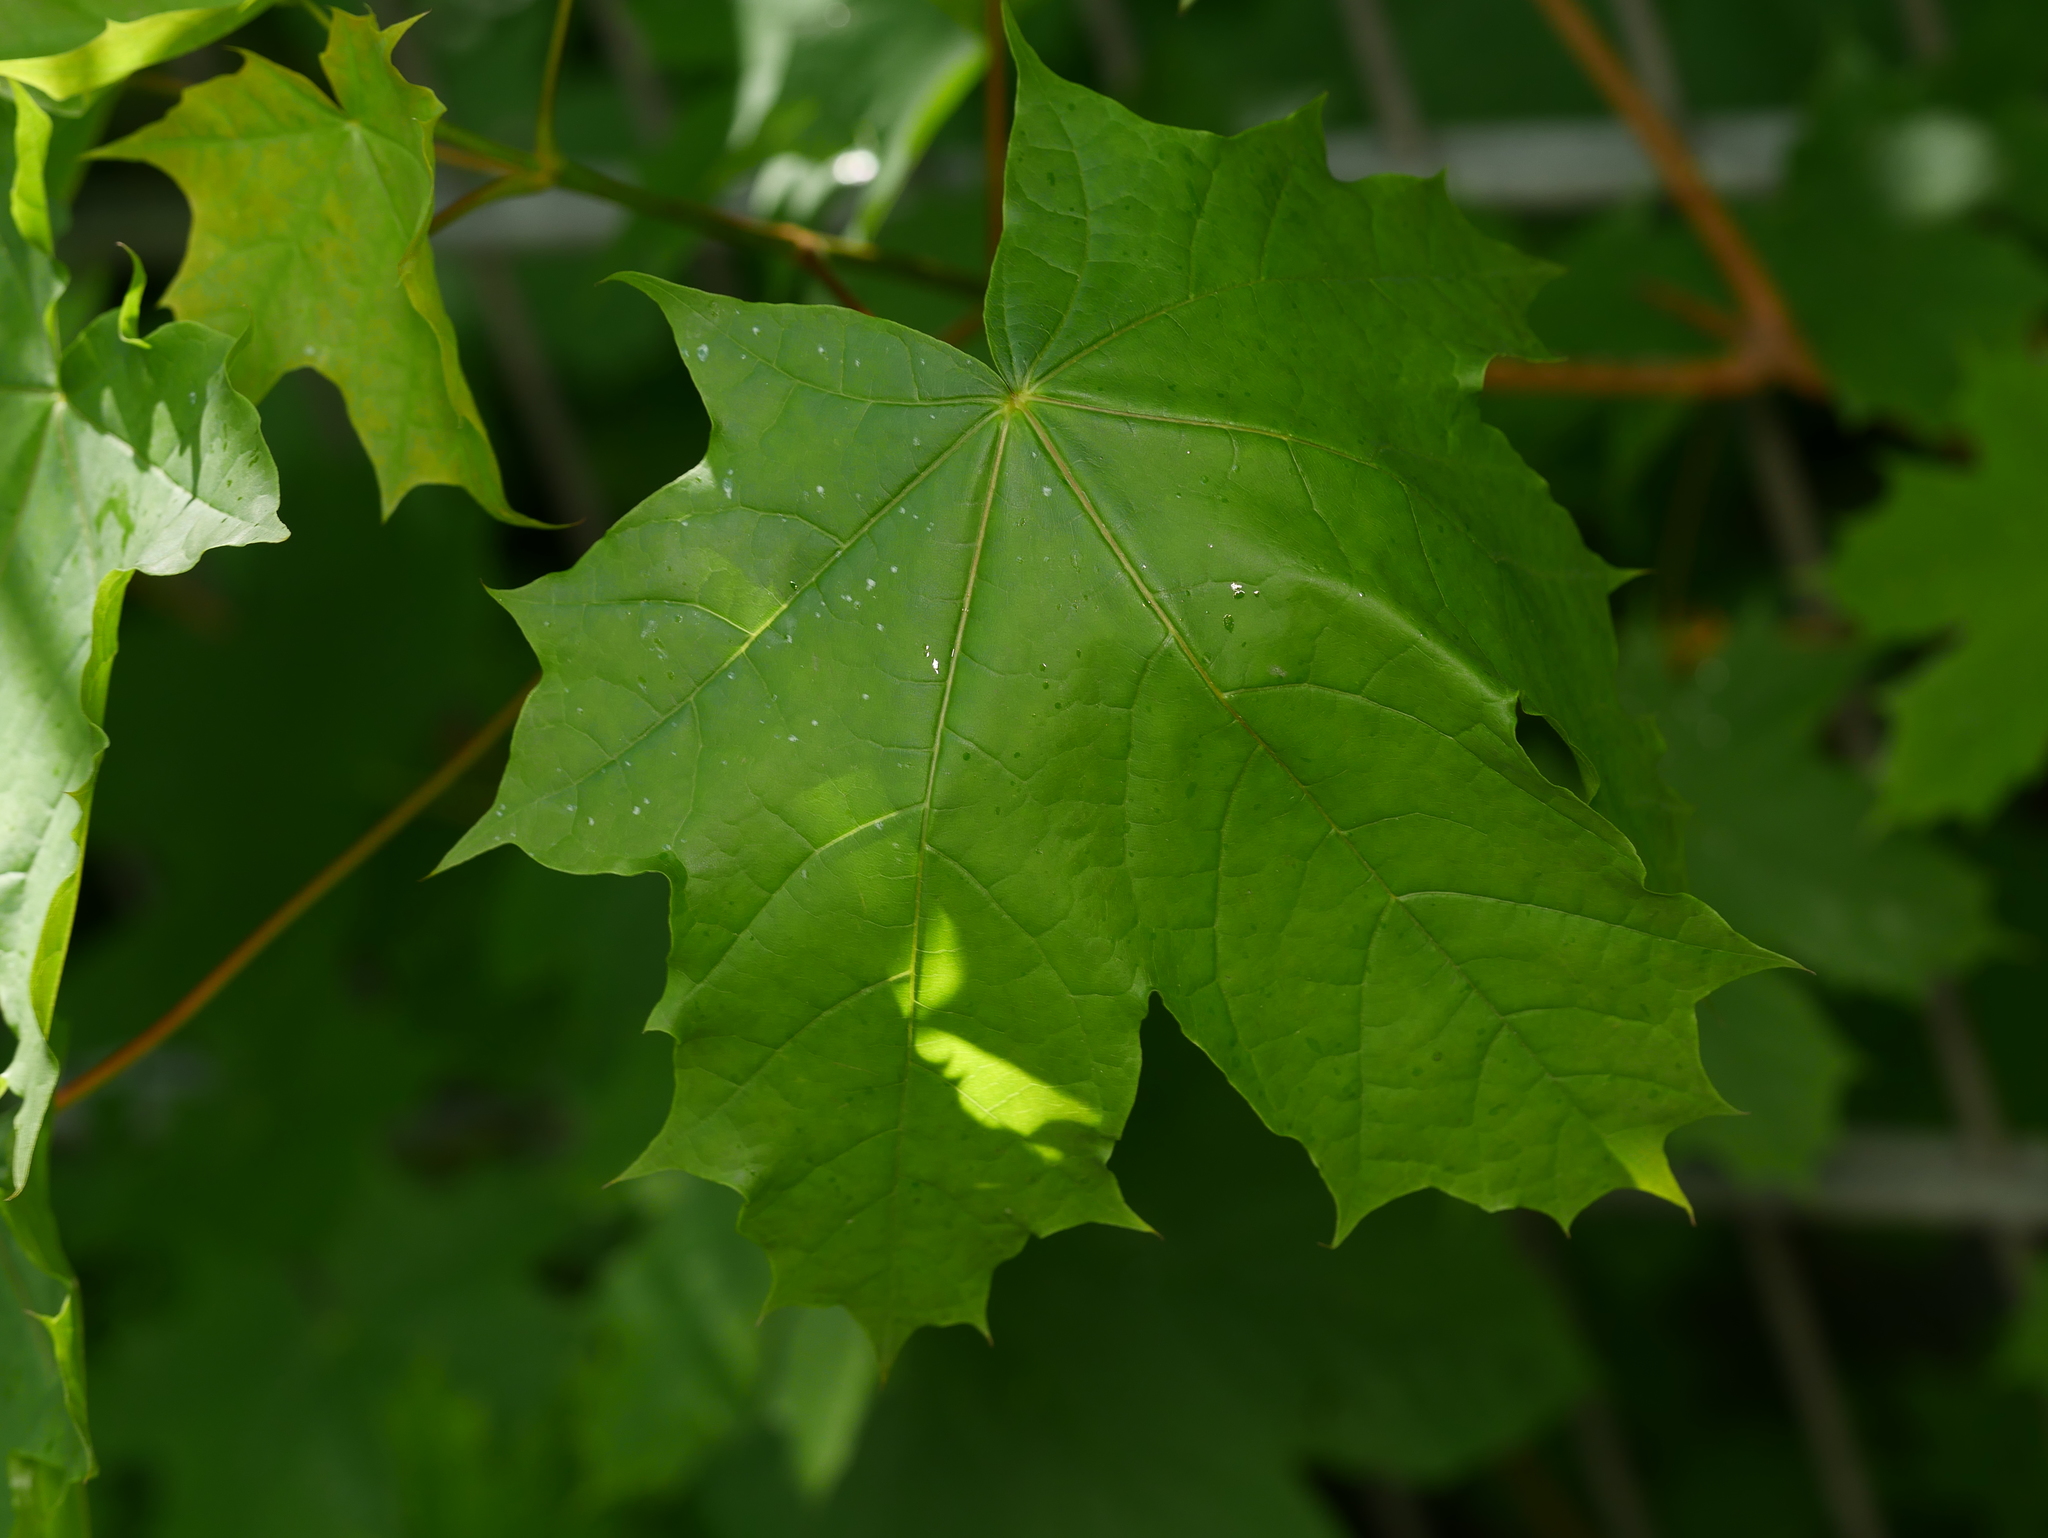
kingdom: Plantae
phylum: Tracheophyta
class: Magnoliopsida
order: Sapindales
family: Sapindaceae
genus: Acer
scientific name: Acer platanoides
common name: Norway maple
